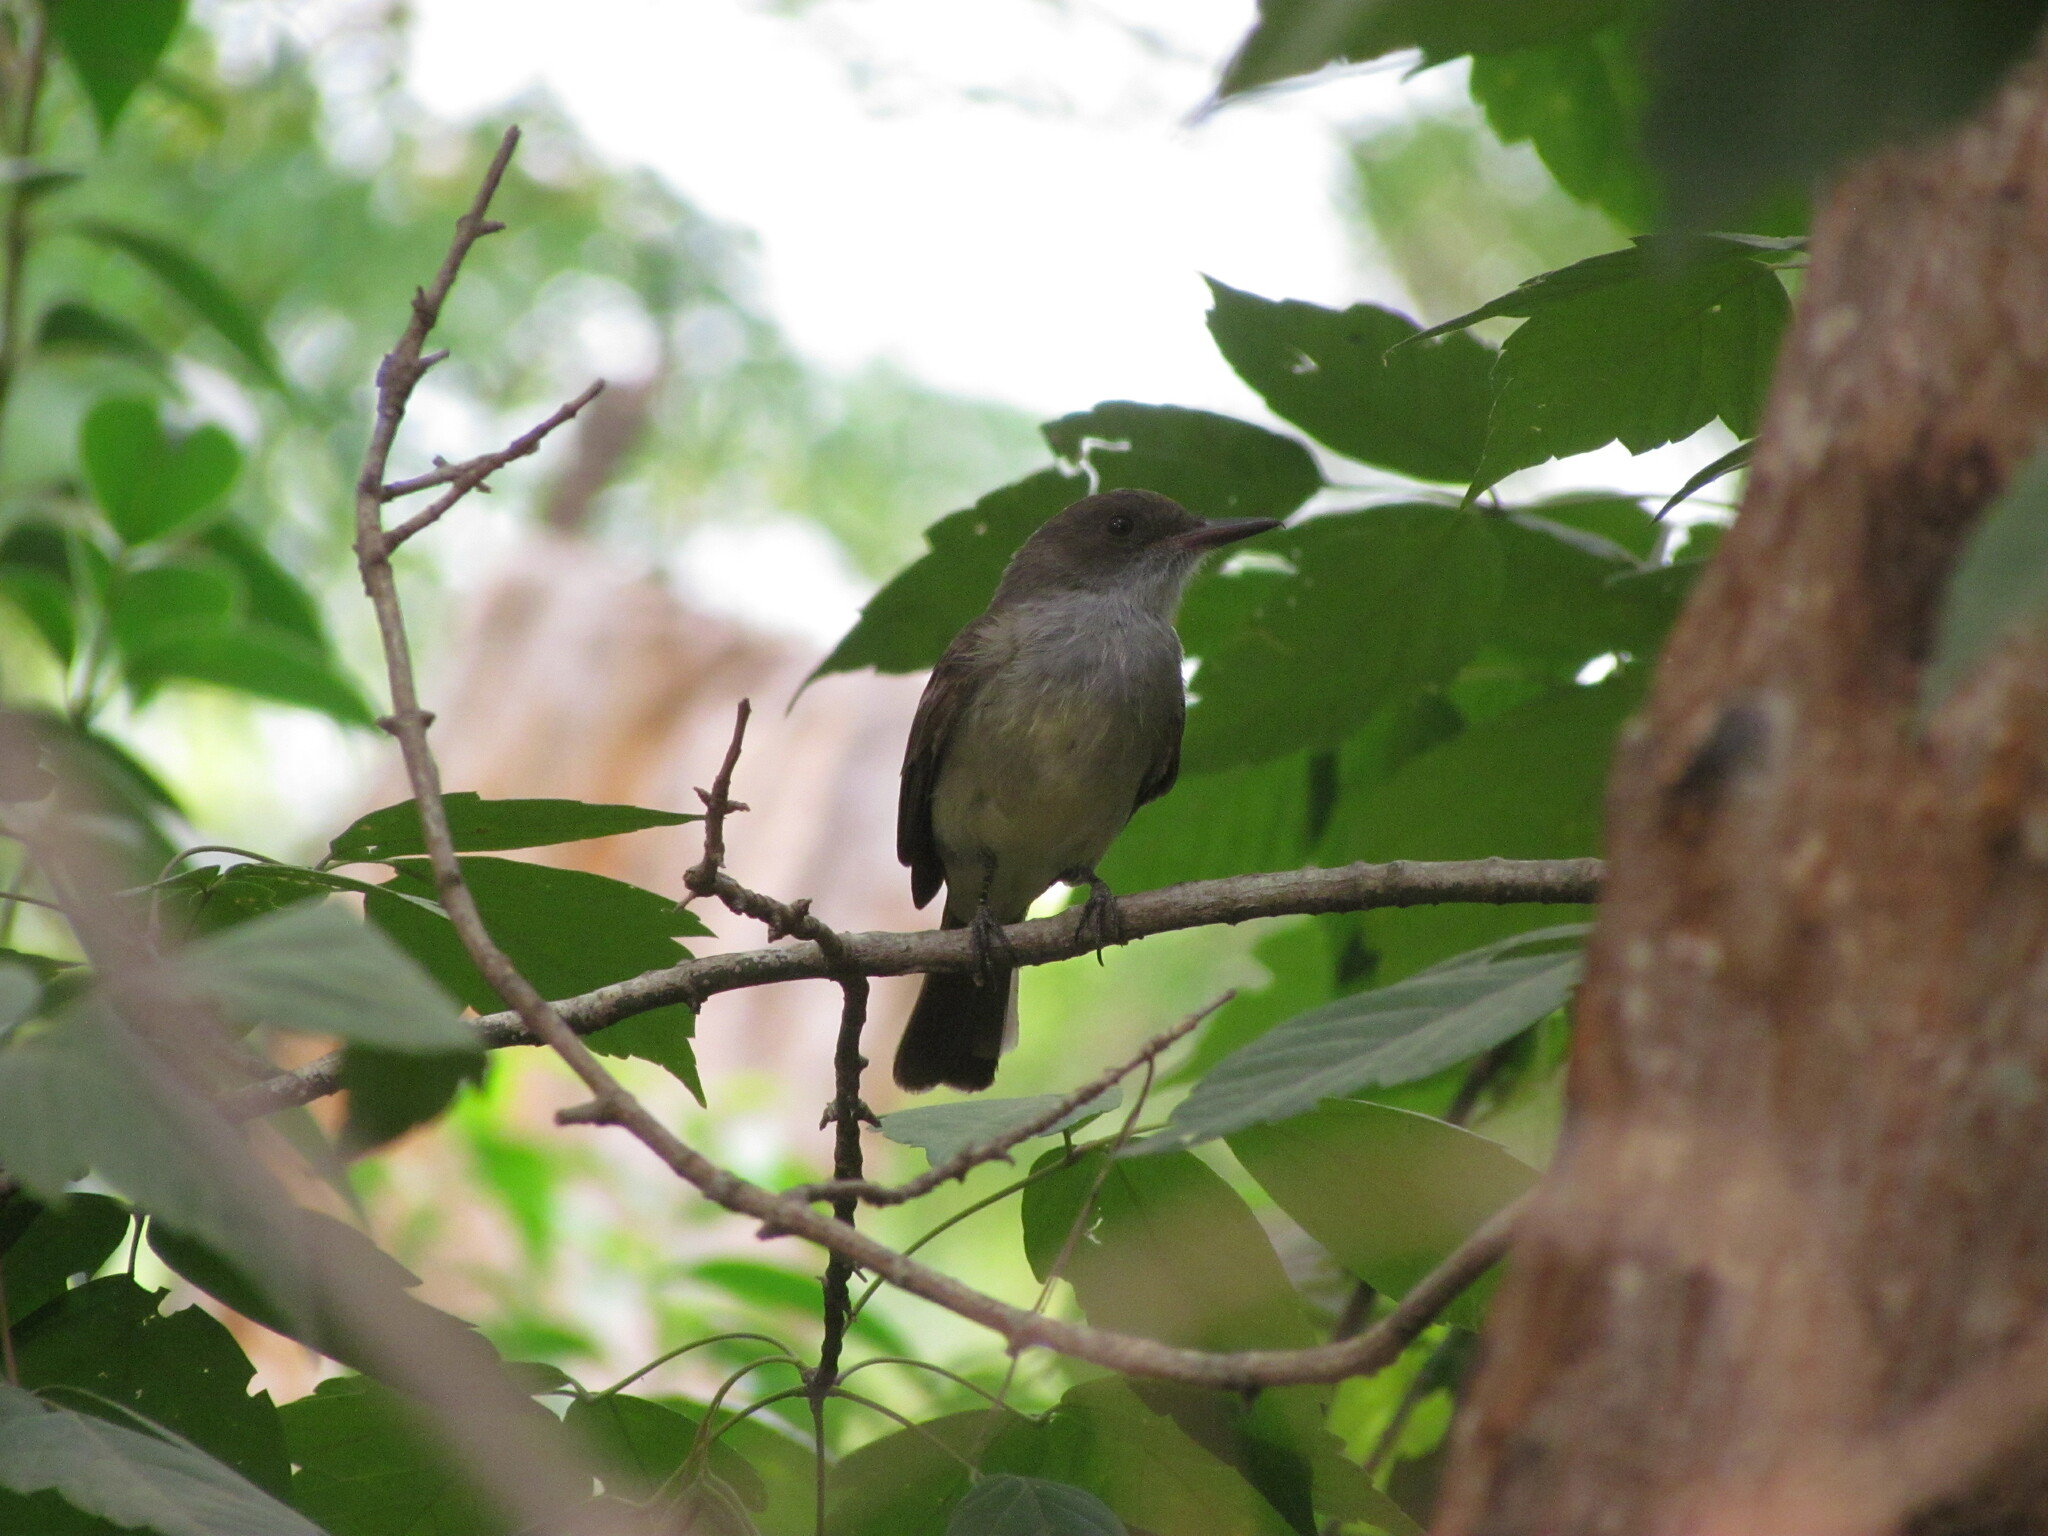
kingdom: Animalia
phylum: Chordata
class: Aves
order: Passeriformes
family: Tyrannidae
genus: Myiarchus
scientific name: Myiarchus swainsoni
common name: Swainson's flycatcher
